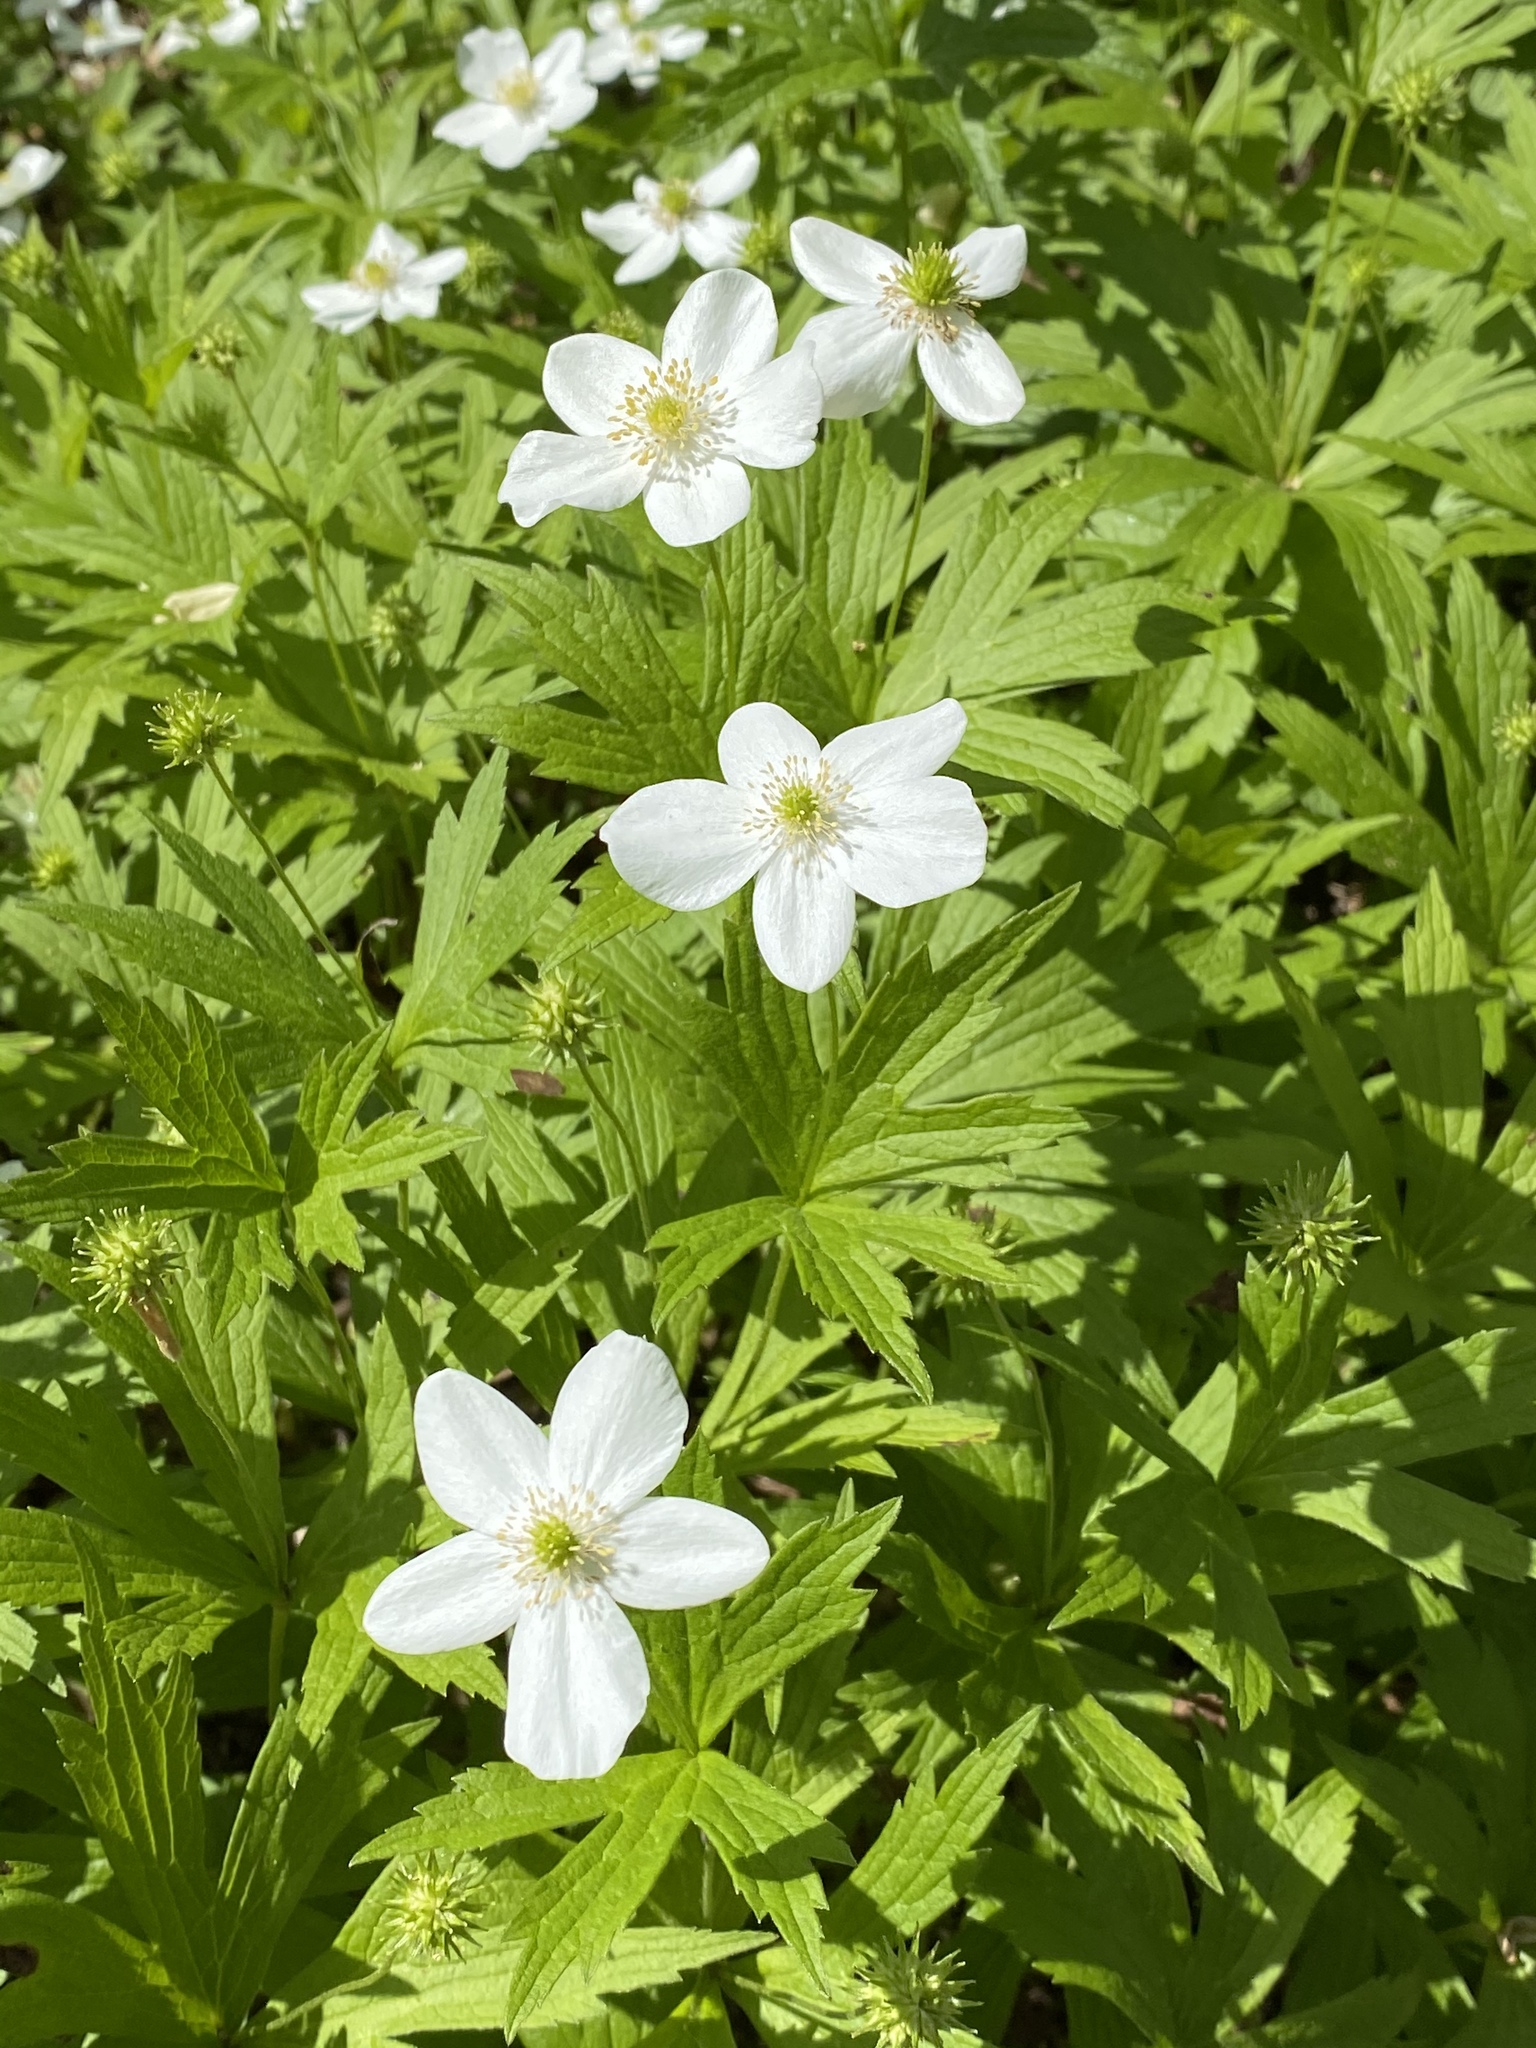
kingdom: Plantae
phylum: Tracheophyta
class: Magnoliopsida
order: Ranunculales
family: Ranunculaceae
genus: Anemonastrum
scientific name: Anemonastrum canadense
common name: Canada anemone
